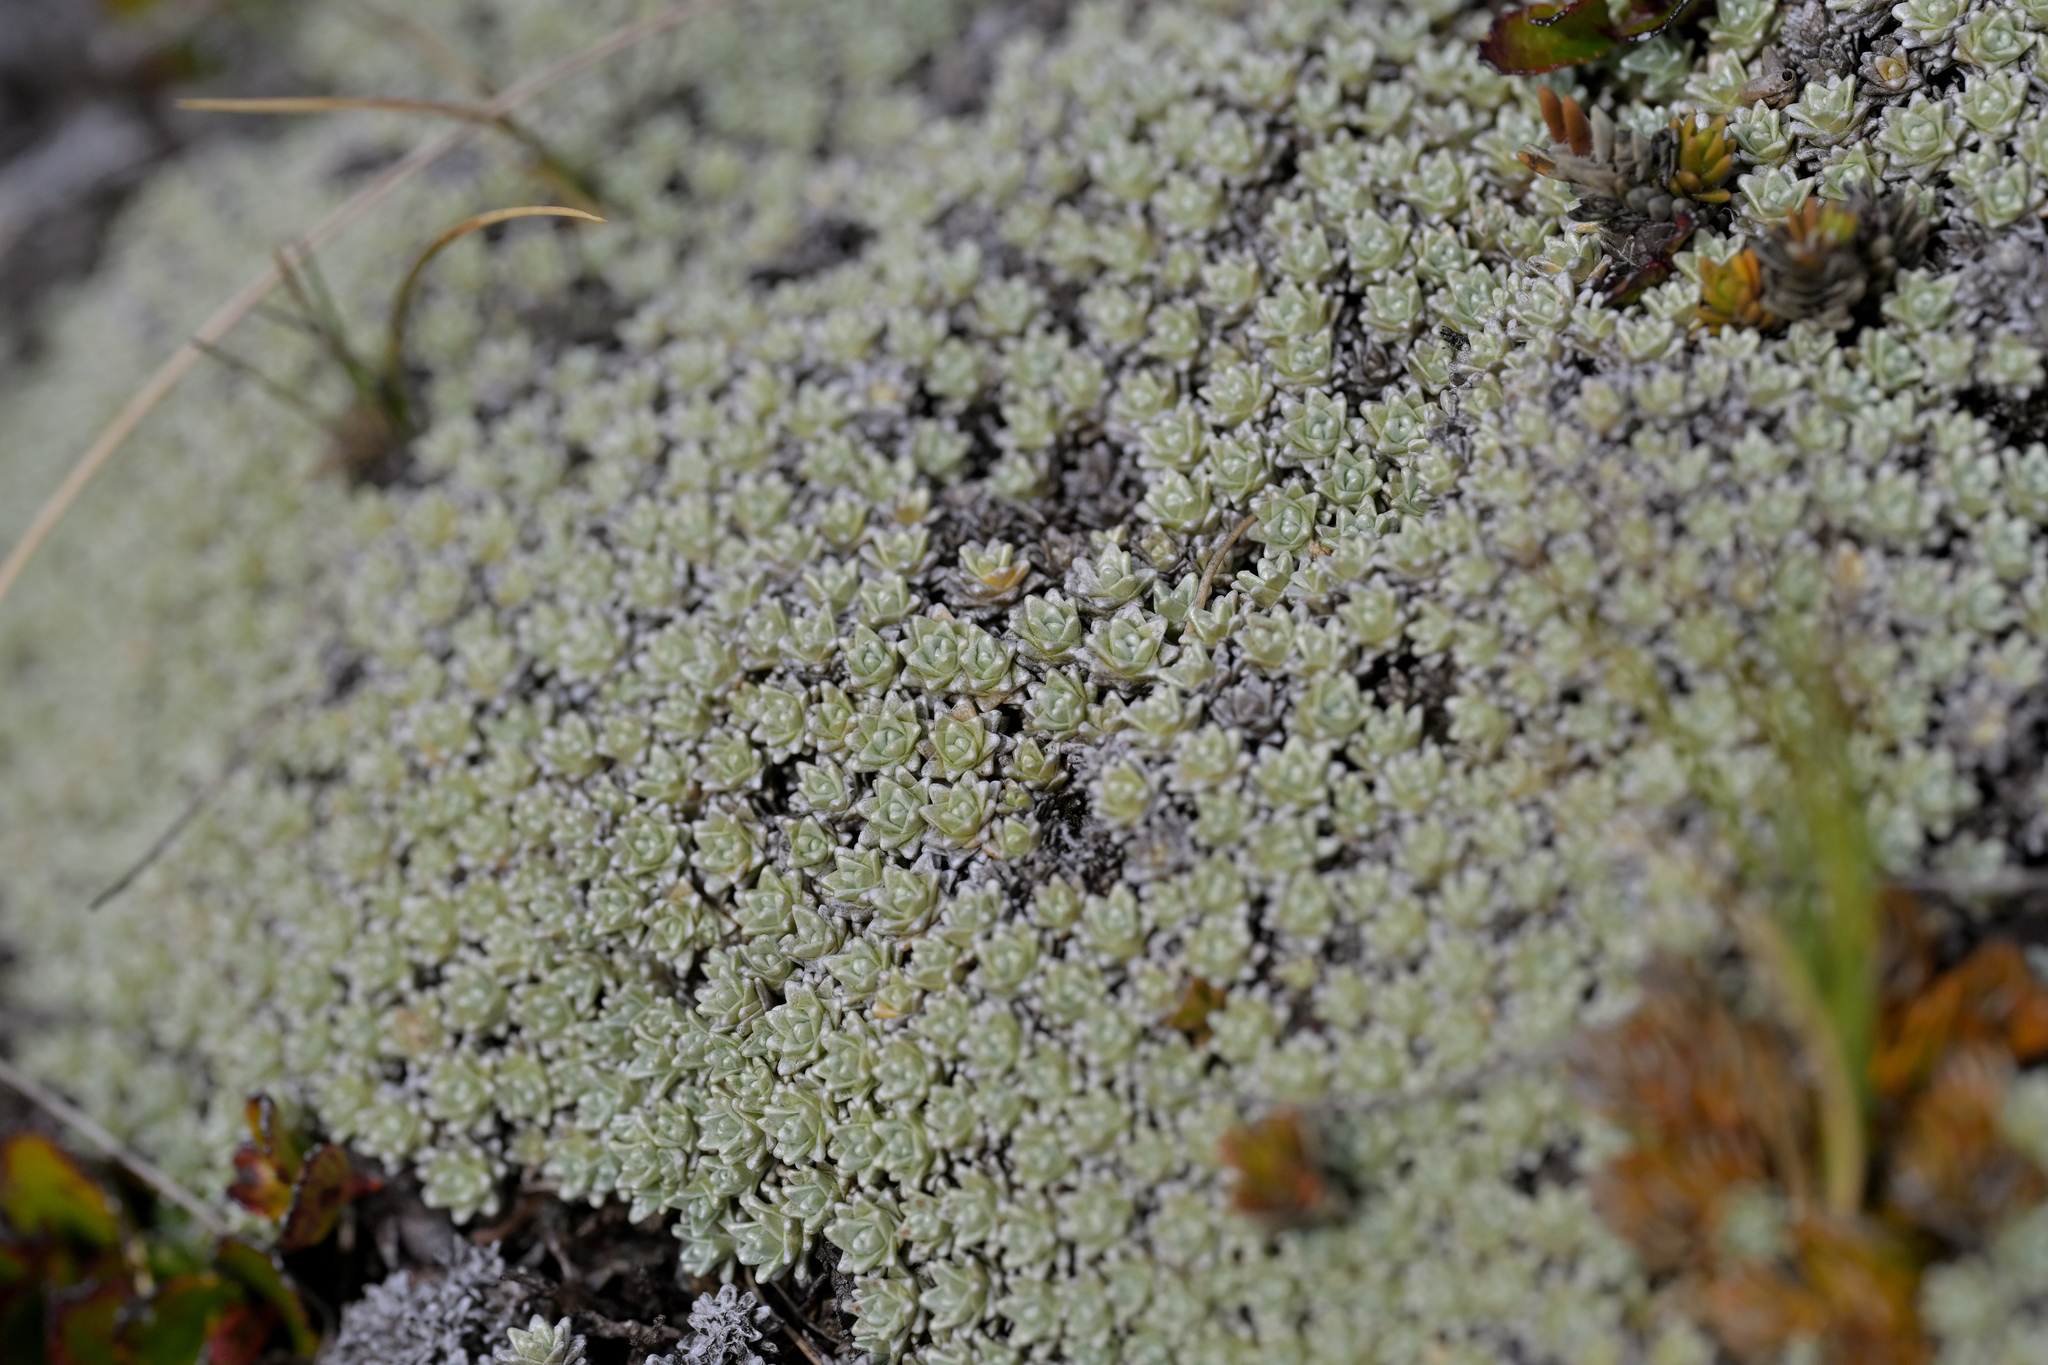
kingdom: Plantae
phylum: Tracheophyta
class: Magnoliopsida
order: Asterales
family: Asteraceae
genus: Raoulia
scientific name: Raoulia hectorii
